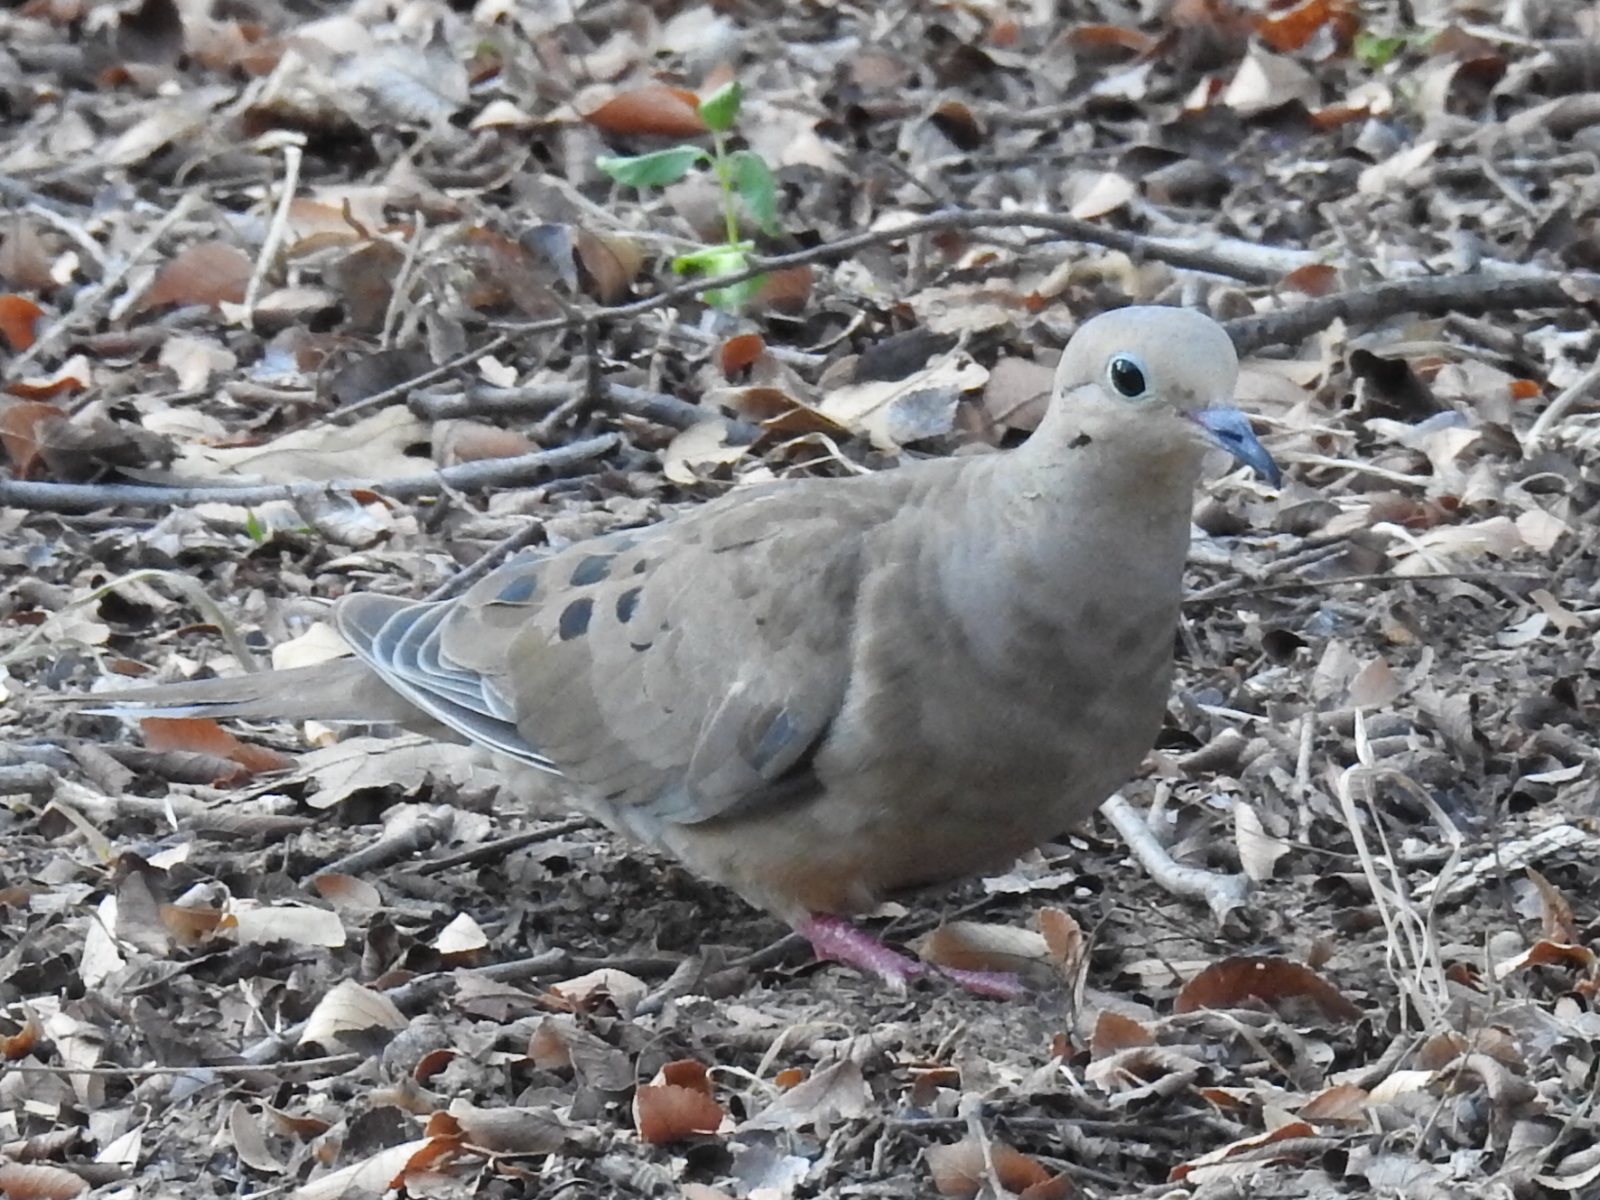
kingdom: Animalia
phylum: Chordata
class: Aves
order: Columbiformes
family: Columbidae
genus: Zenaida
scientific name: Zenaida macroura
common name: Mourning dove
